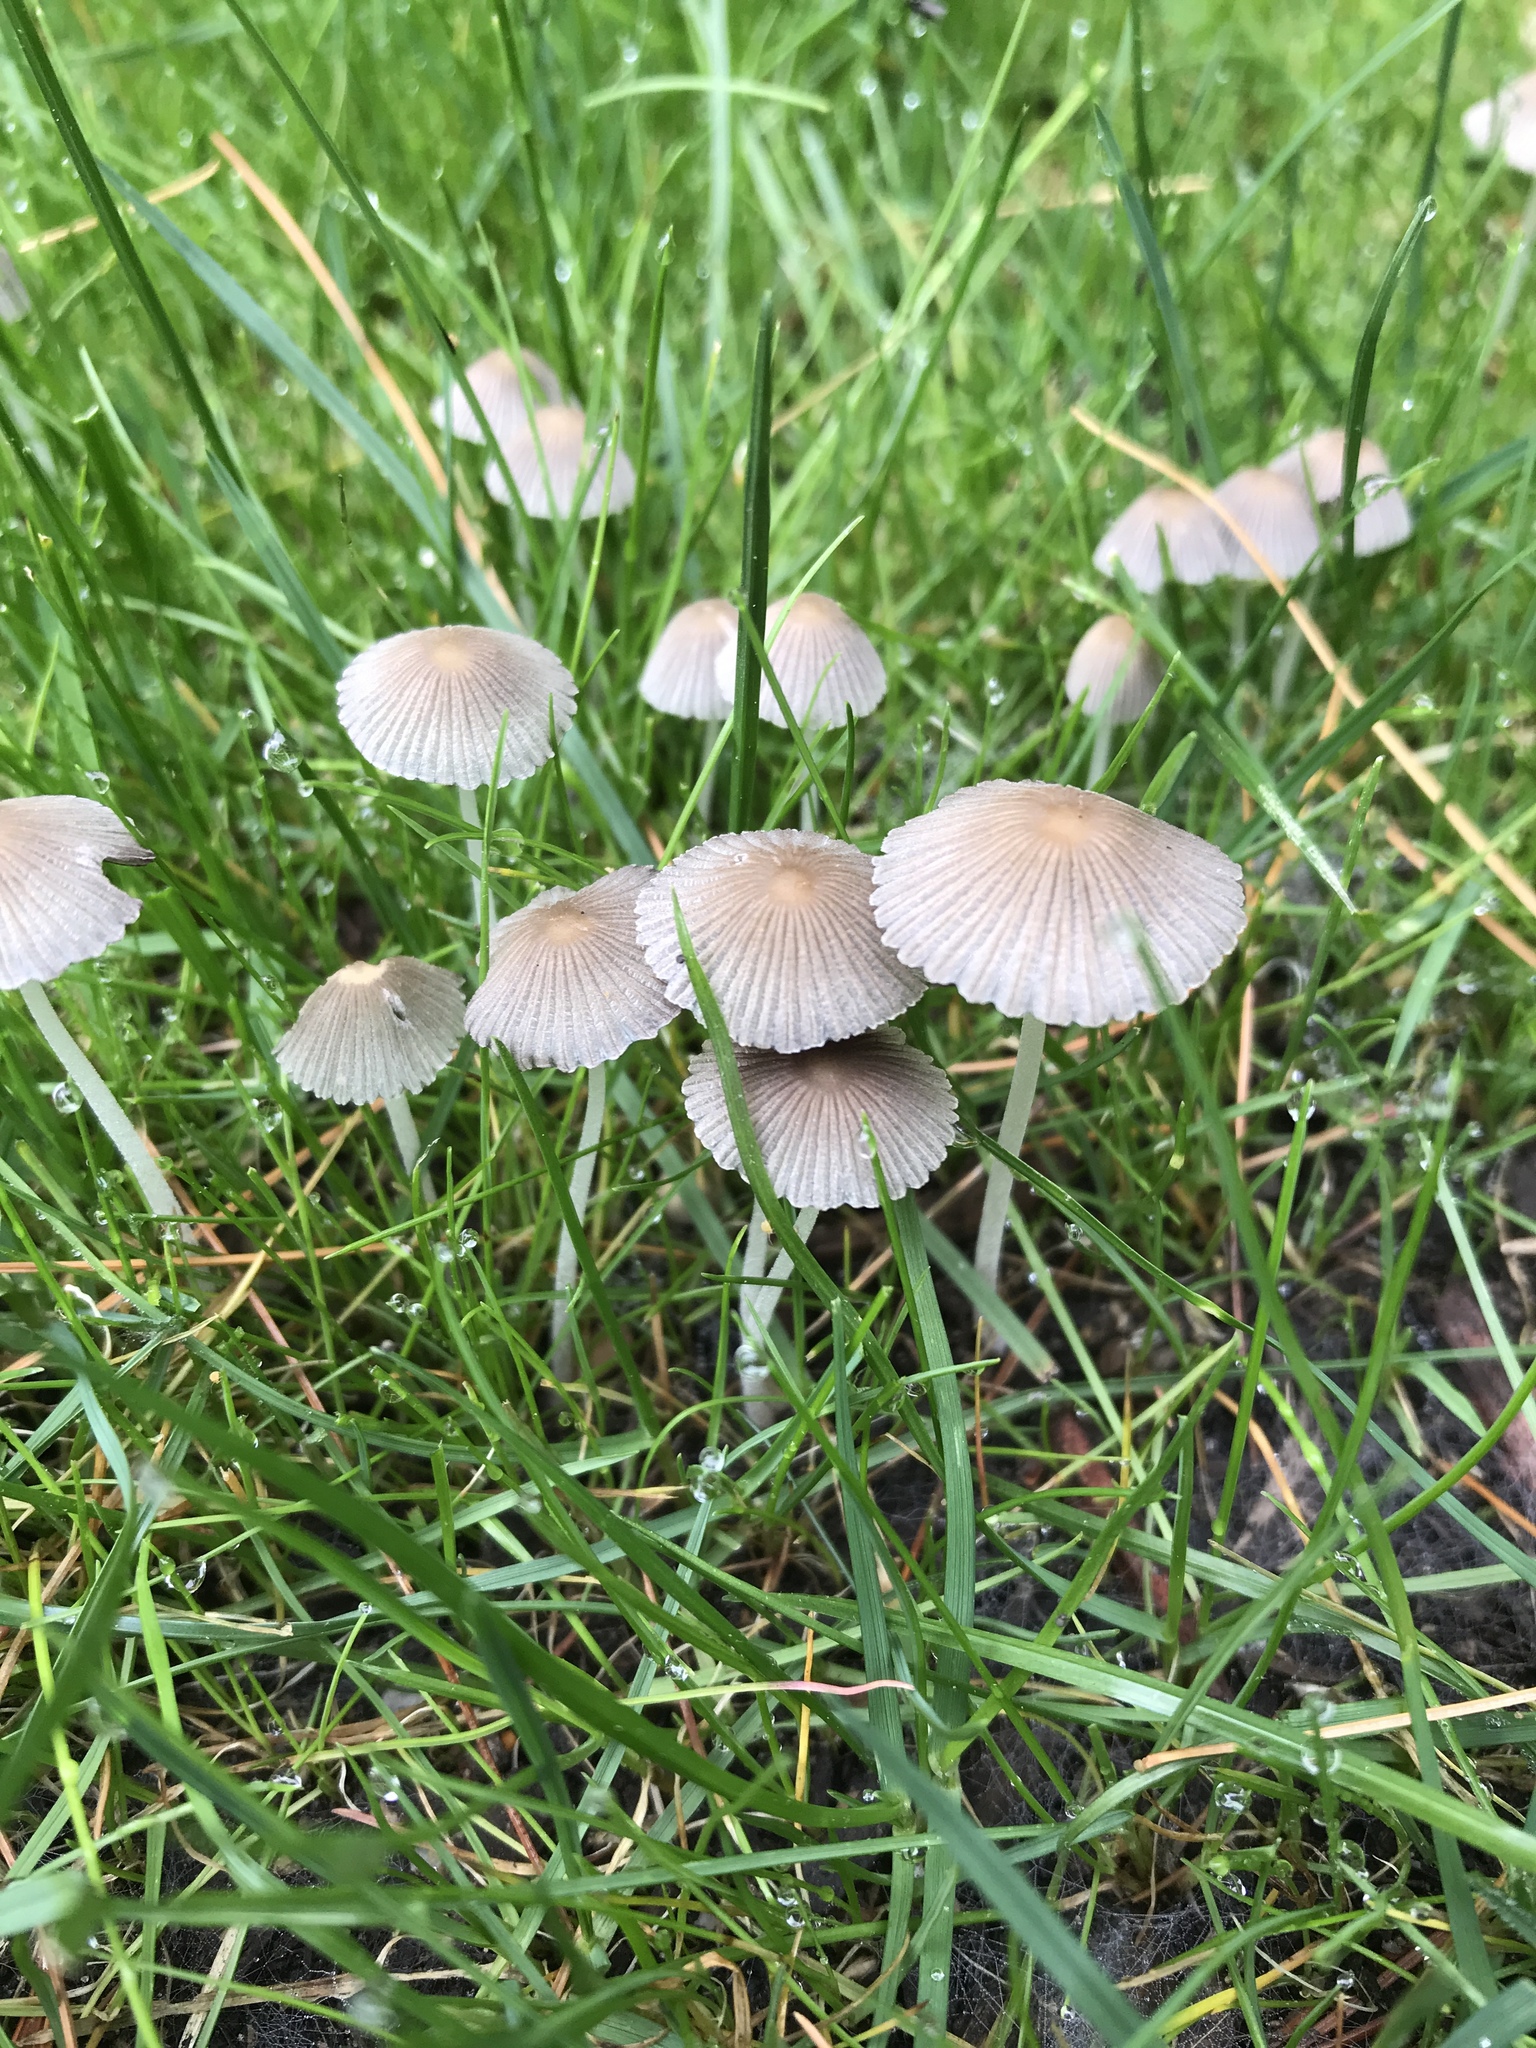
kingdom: Fungi
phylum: Basidiomycota
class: Agaricomycetes
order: Agaricales
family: Psathyrellaceae
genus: Parasola
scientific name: Parasola plicatilis
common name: Pleated inkcap
